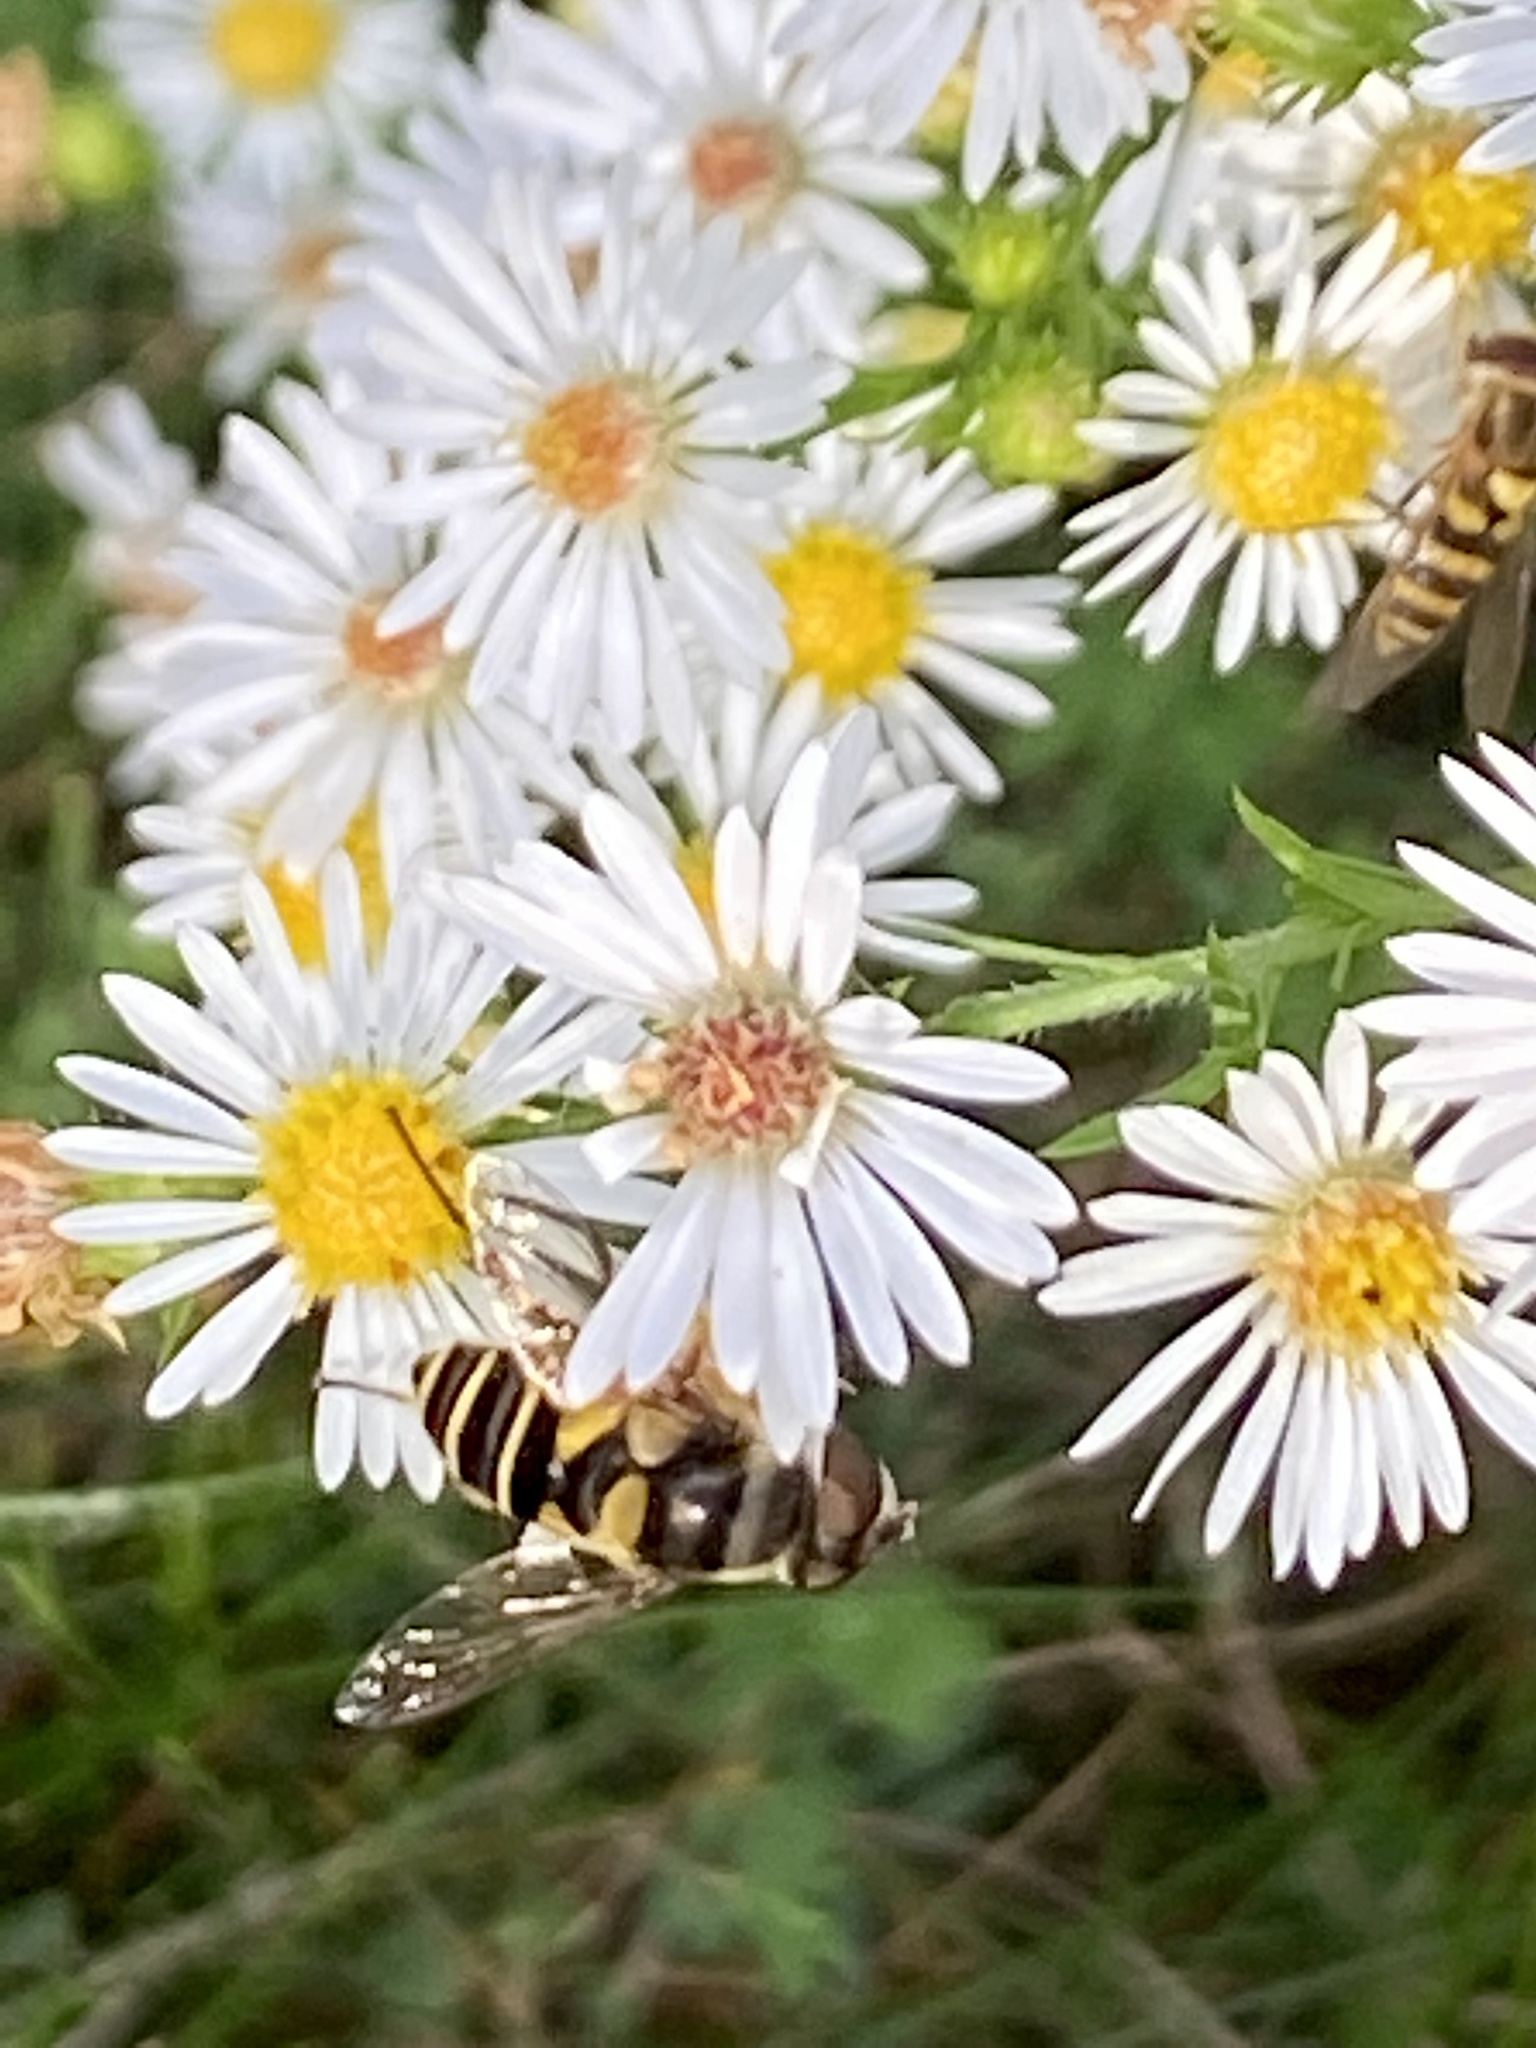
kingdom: Animalia
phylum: Arthropoda
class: Insecta
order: Diptera
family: Syrphidae
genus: Eristalis
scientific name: Eristalis transversa
